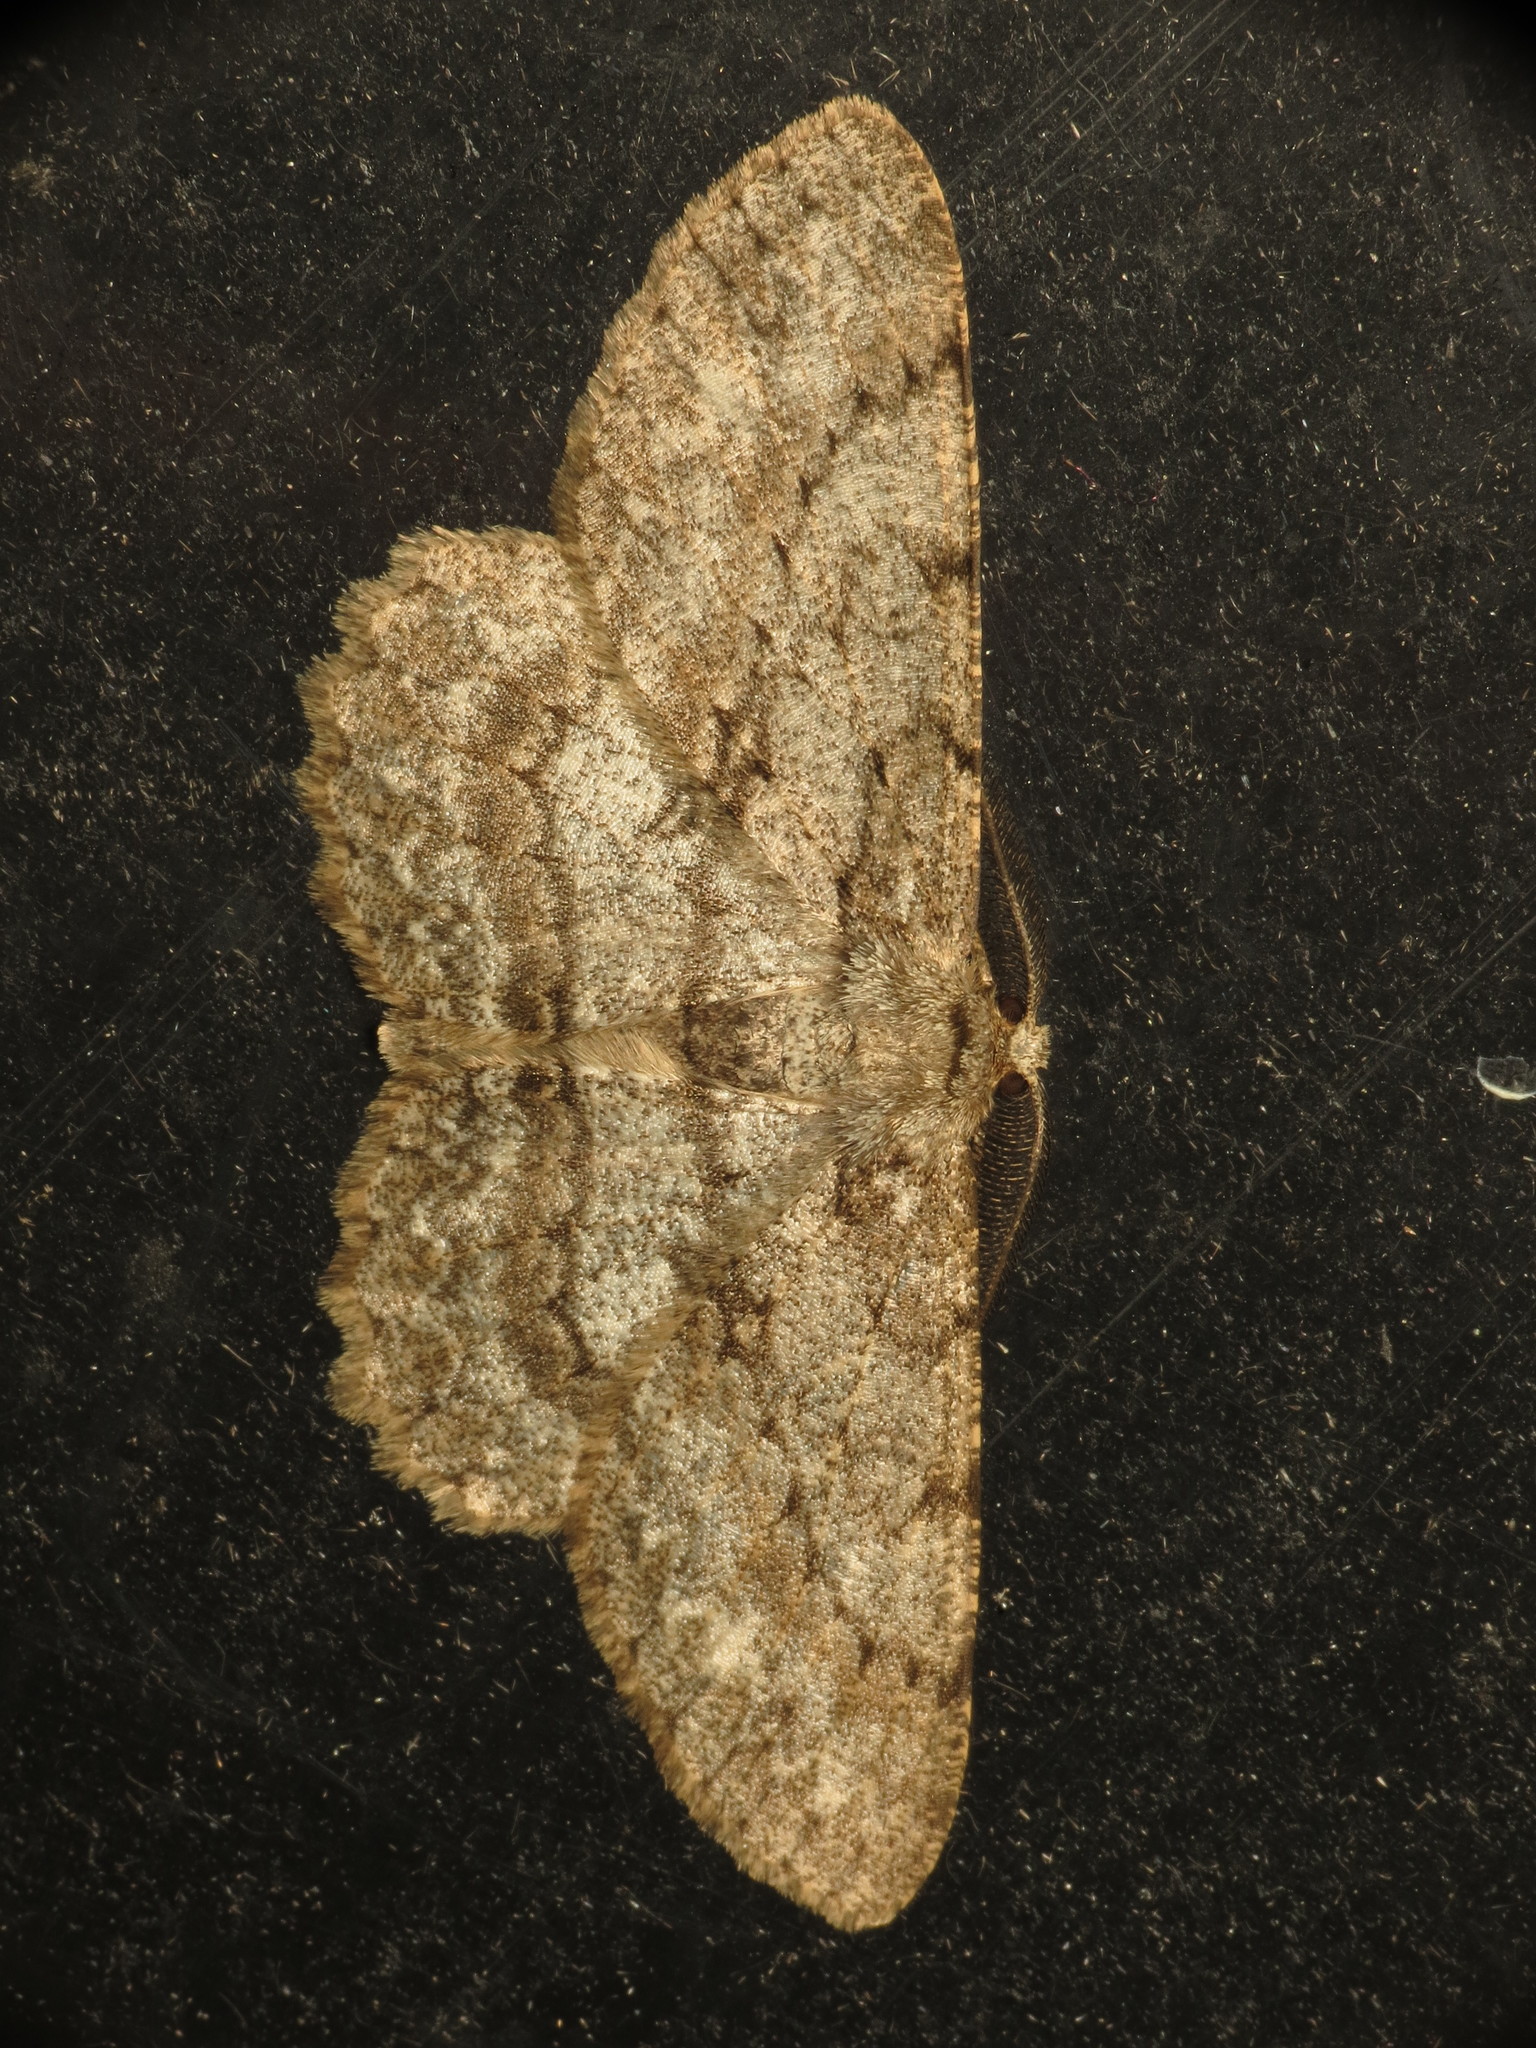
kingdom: Animalia
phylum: Arthropoda
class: Insecta
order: Lepidoptera
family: Geometridae
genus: Hypomecis
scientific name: Hypomecis punctinalis
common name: Pale oak beauty
